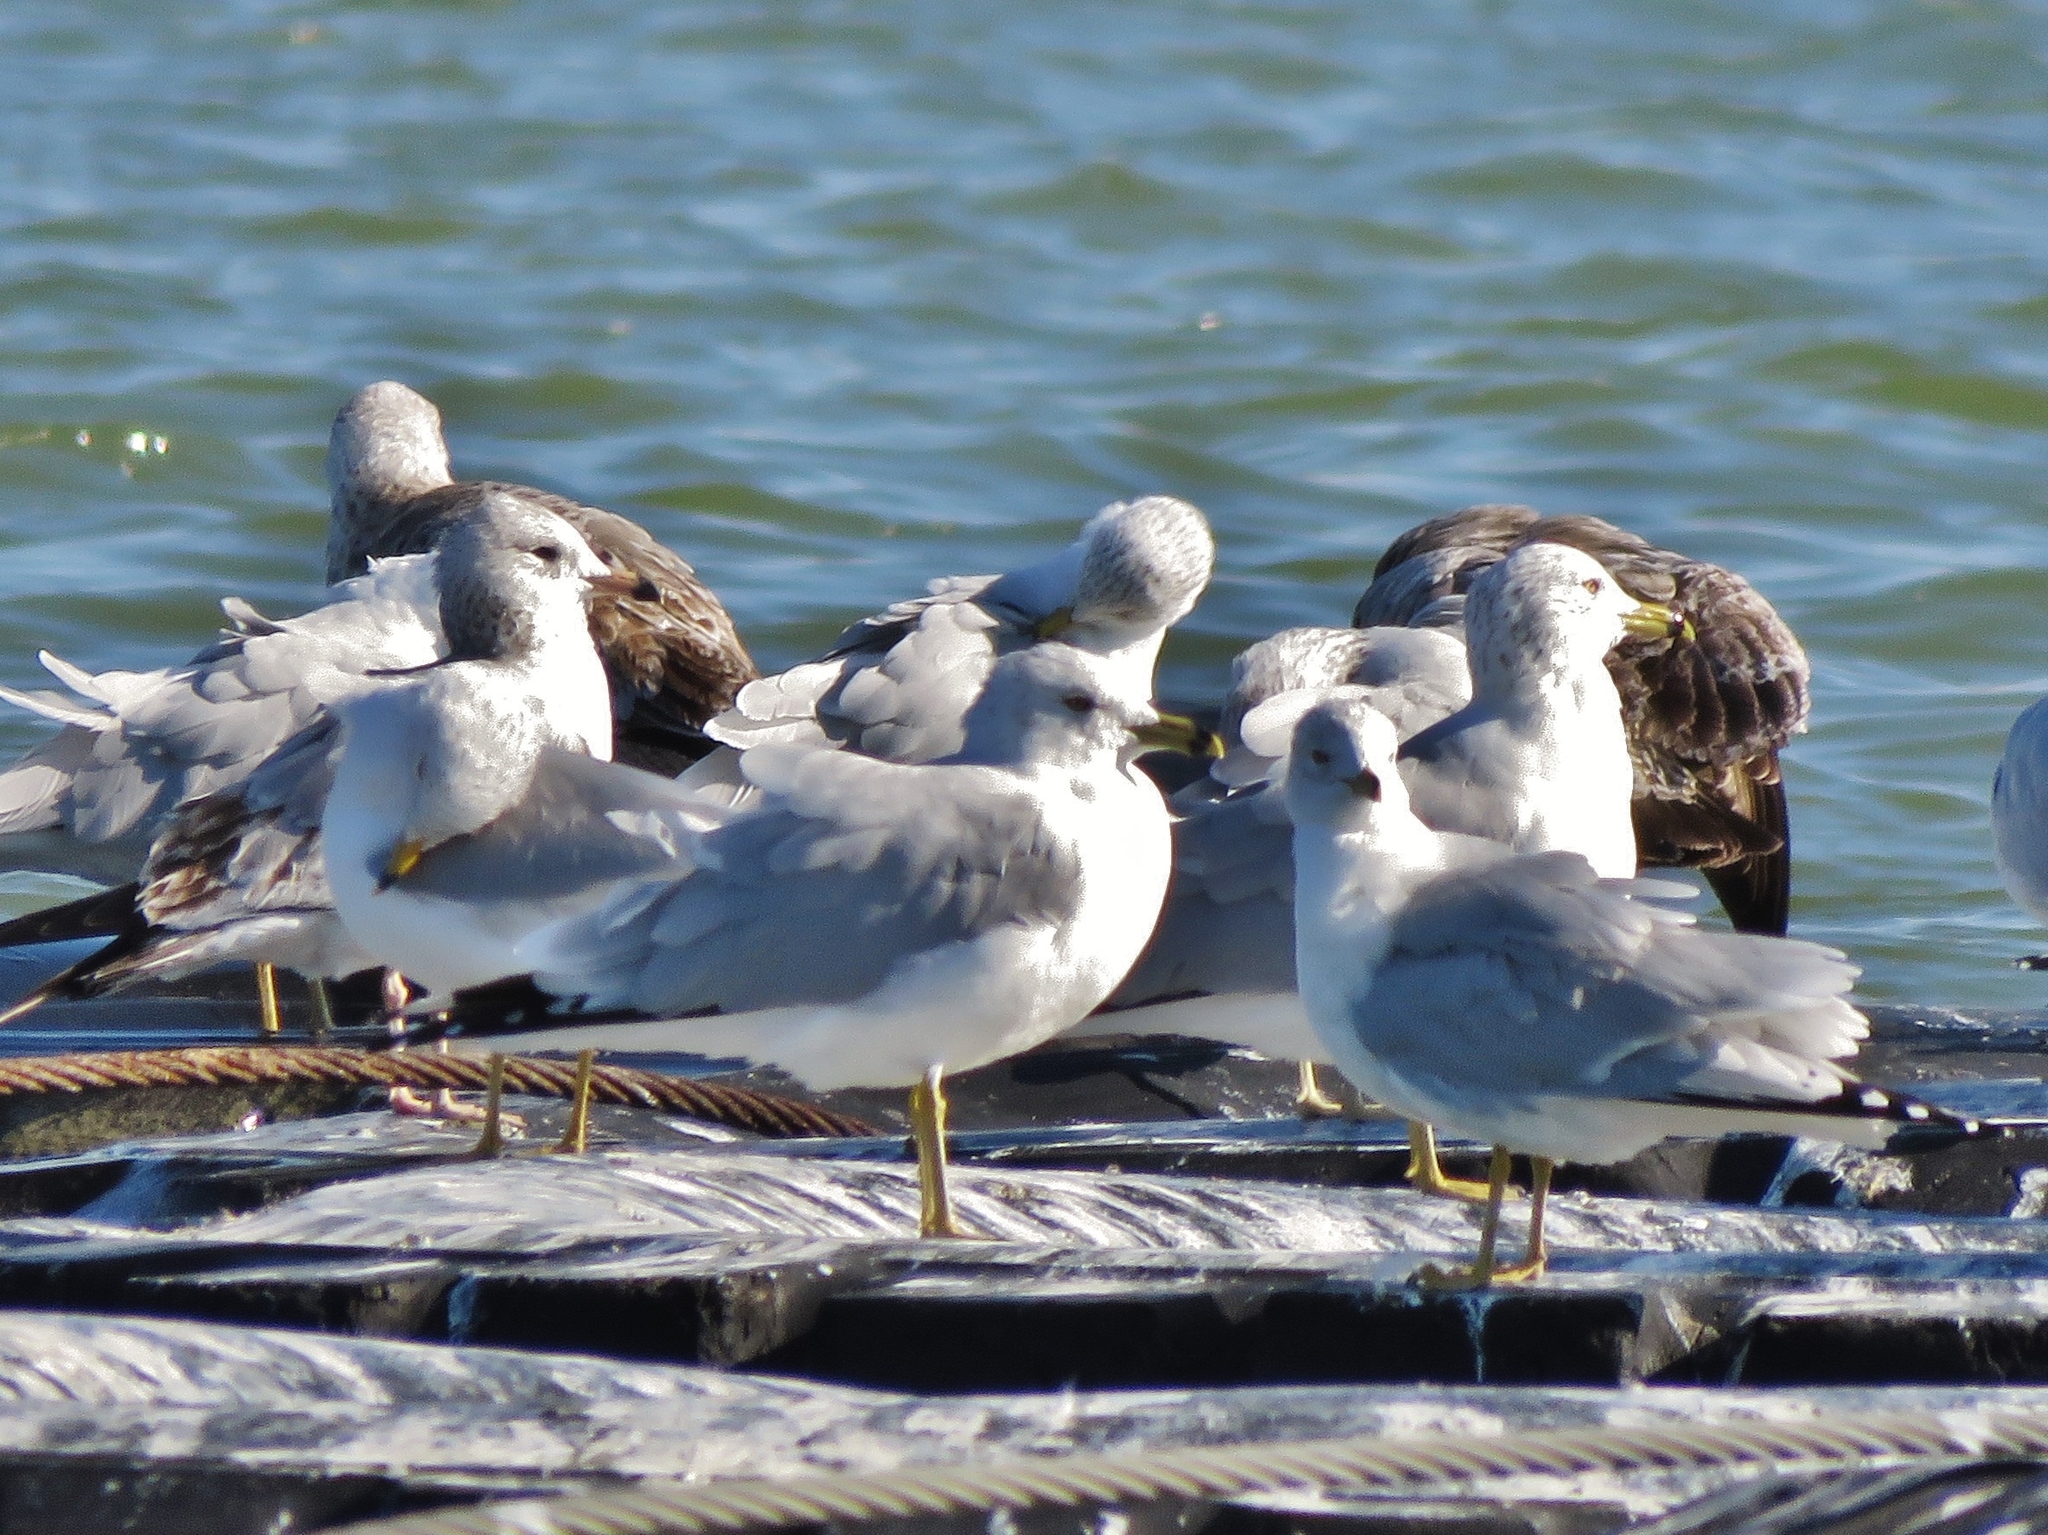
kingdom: Animalia
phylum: Chordata
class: Aves
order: Charadriiformes
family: Laridae
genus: Larus
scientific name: Larus delawarensis
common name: Ring-billed gull
